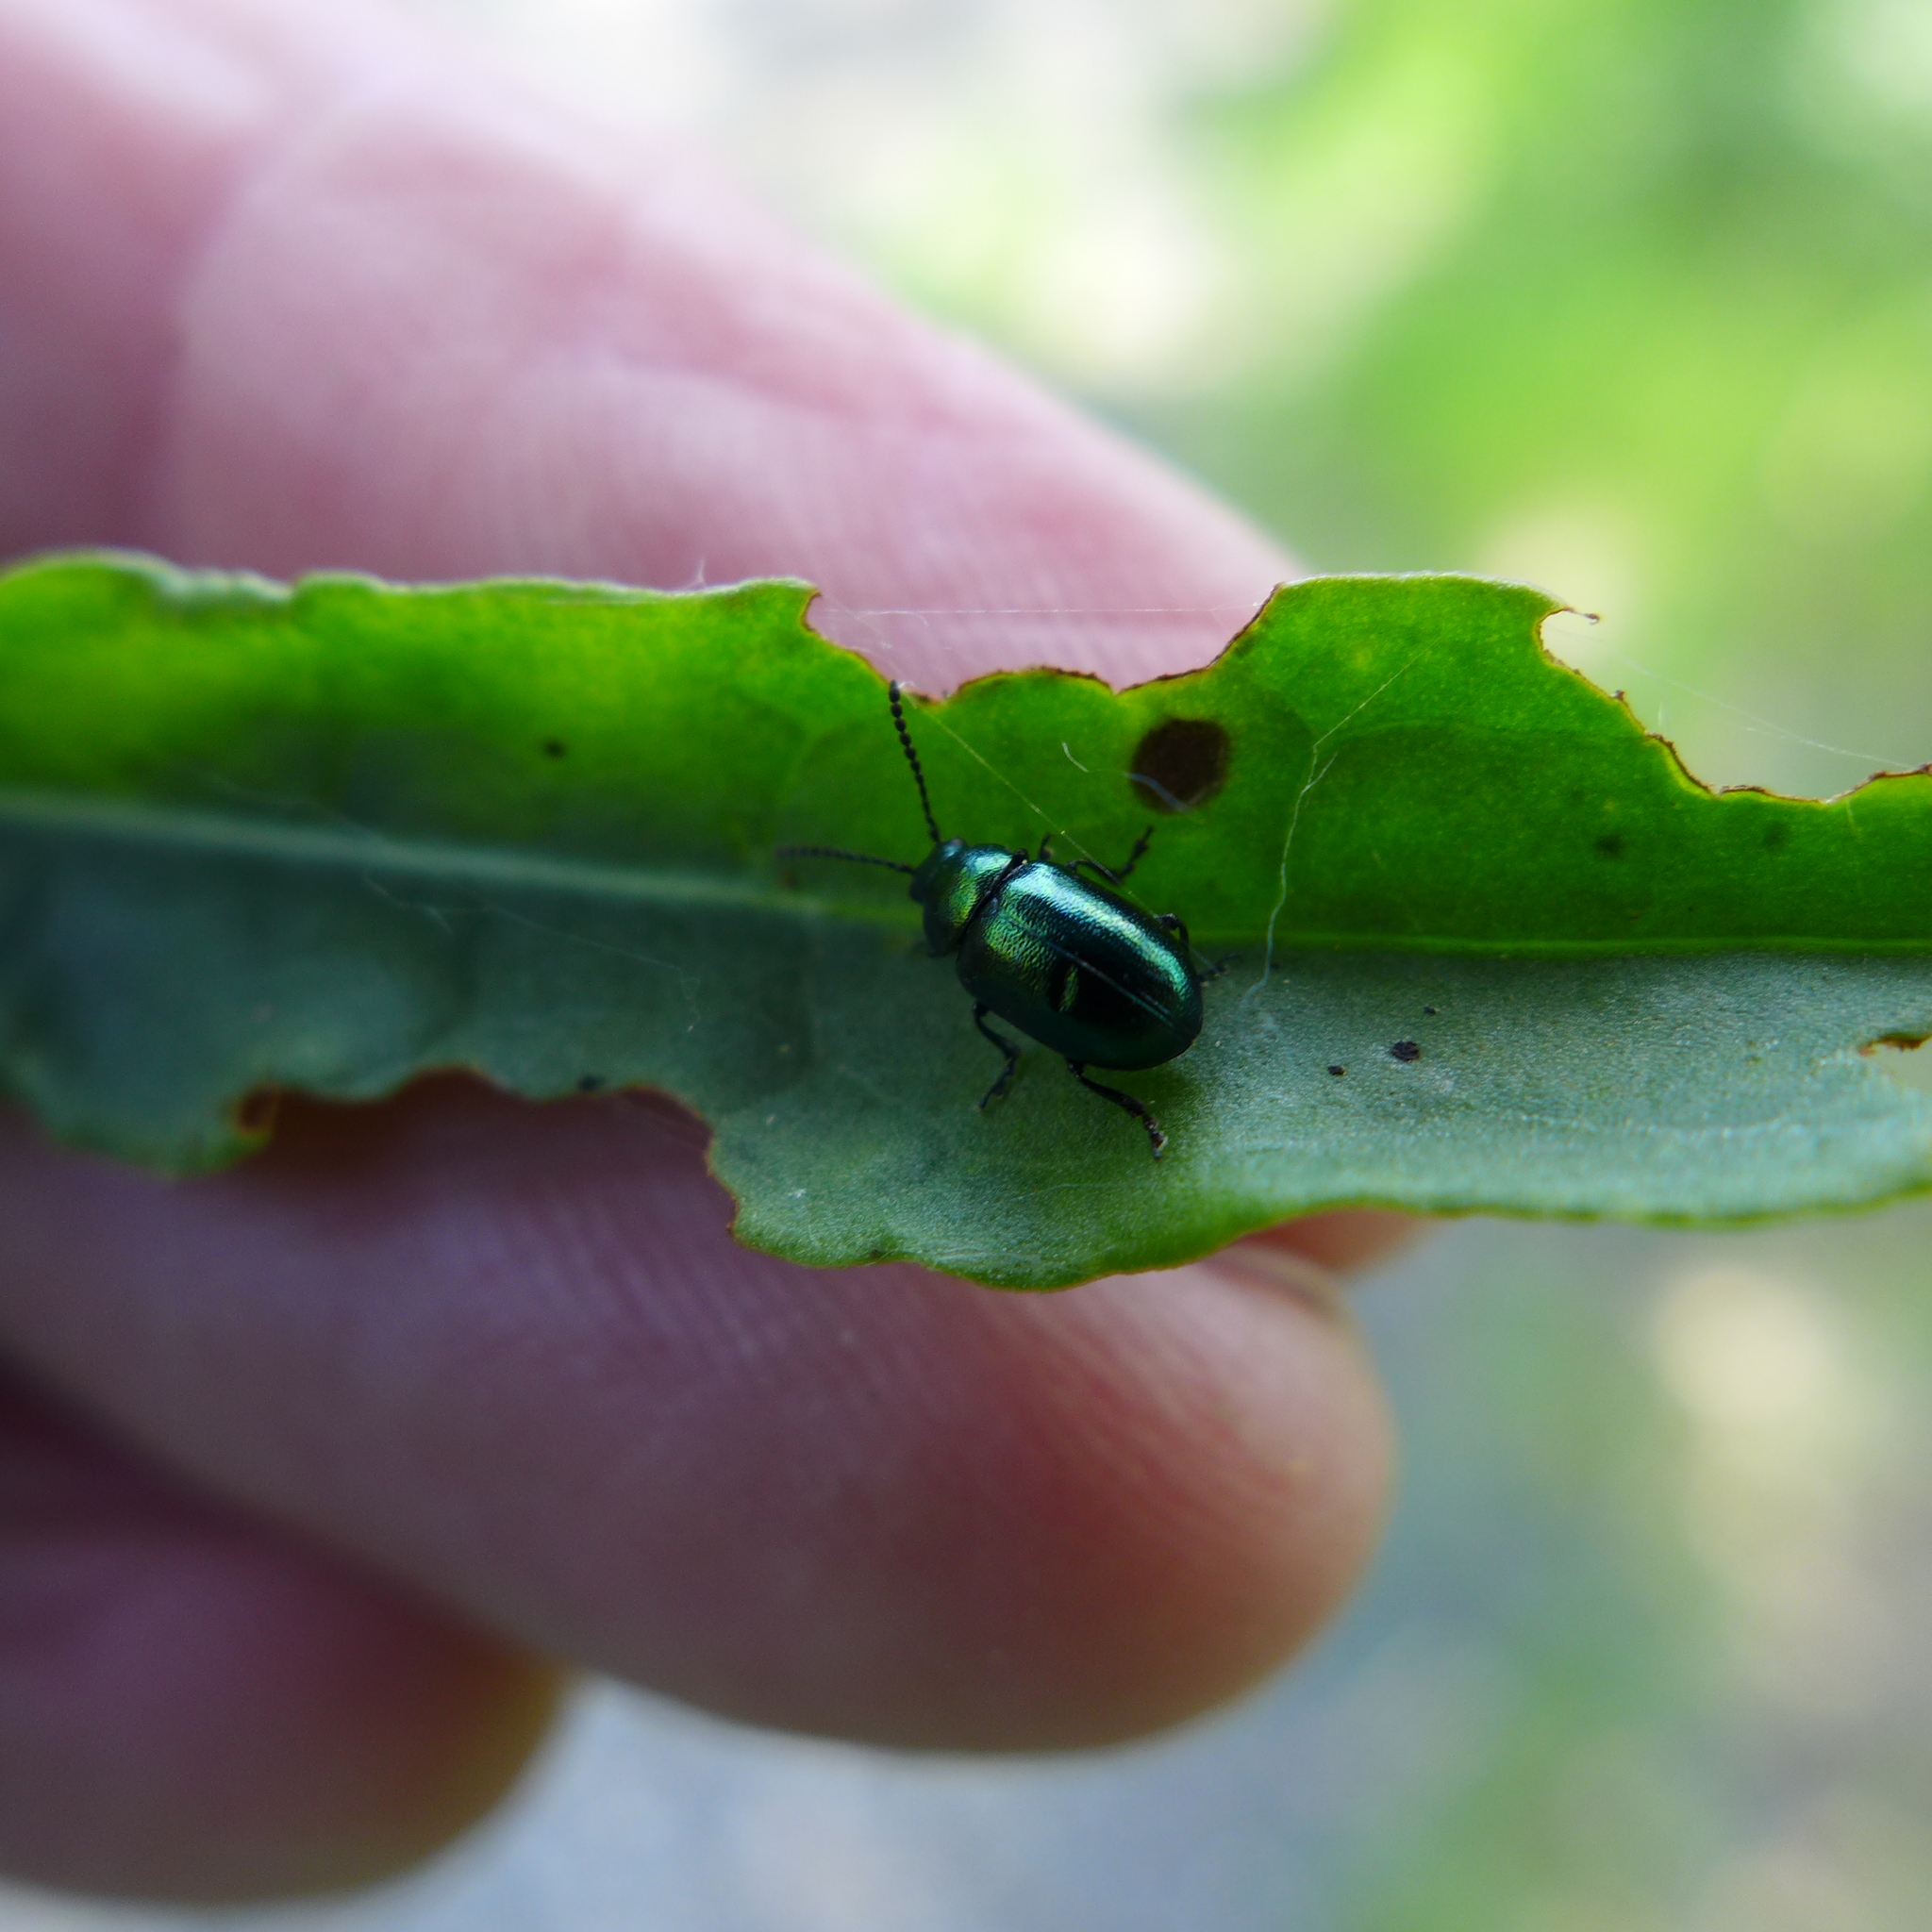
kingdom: Animalia
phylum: Arthropoda
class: Insecta
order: Coleoptera
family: Chrysomelidae
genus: Gastrophysa
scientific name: Gastrophysa cyanea
